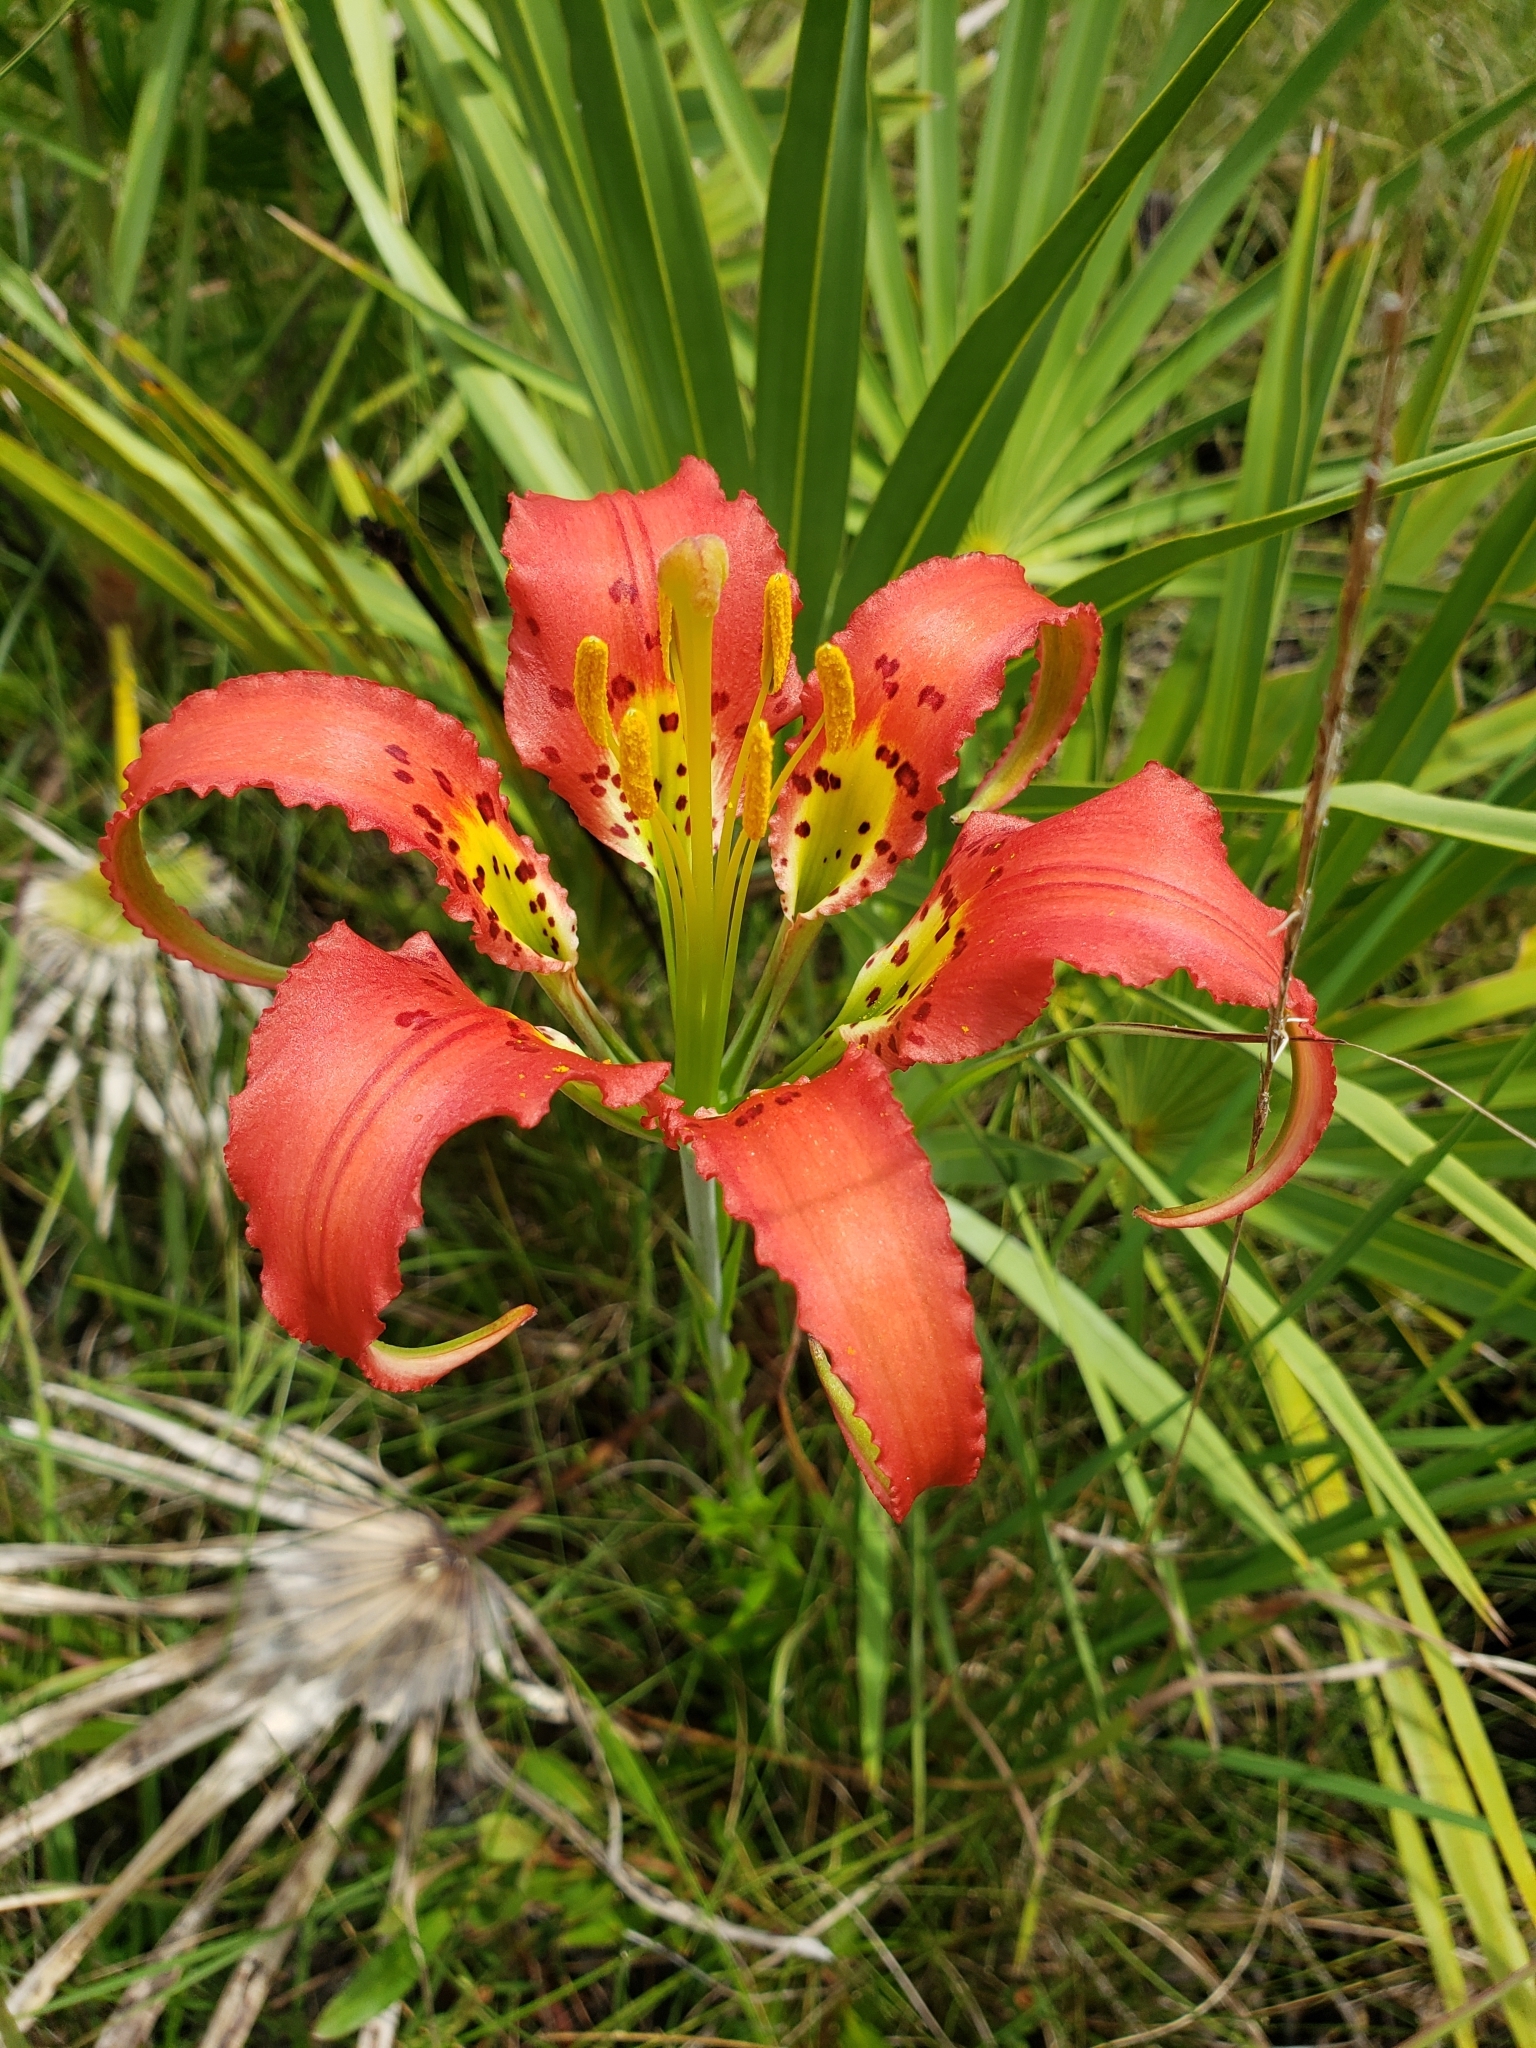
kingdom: Plantae
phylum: Tracheophyta
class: Liliopsida
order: Liliales
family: Liliaceae
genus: Lilium
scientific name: Lilium catesbaei
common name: Catesby's lily
